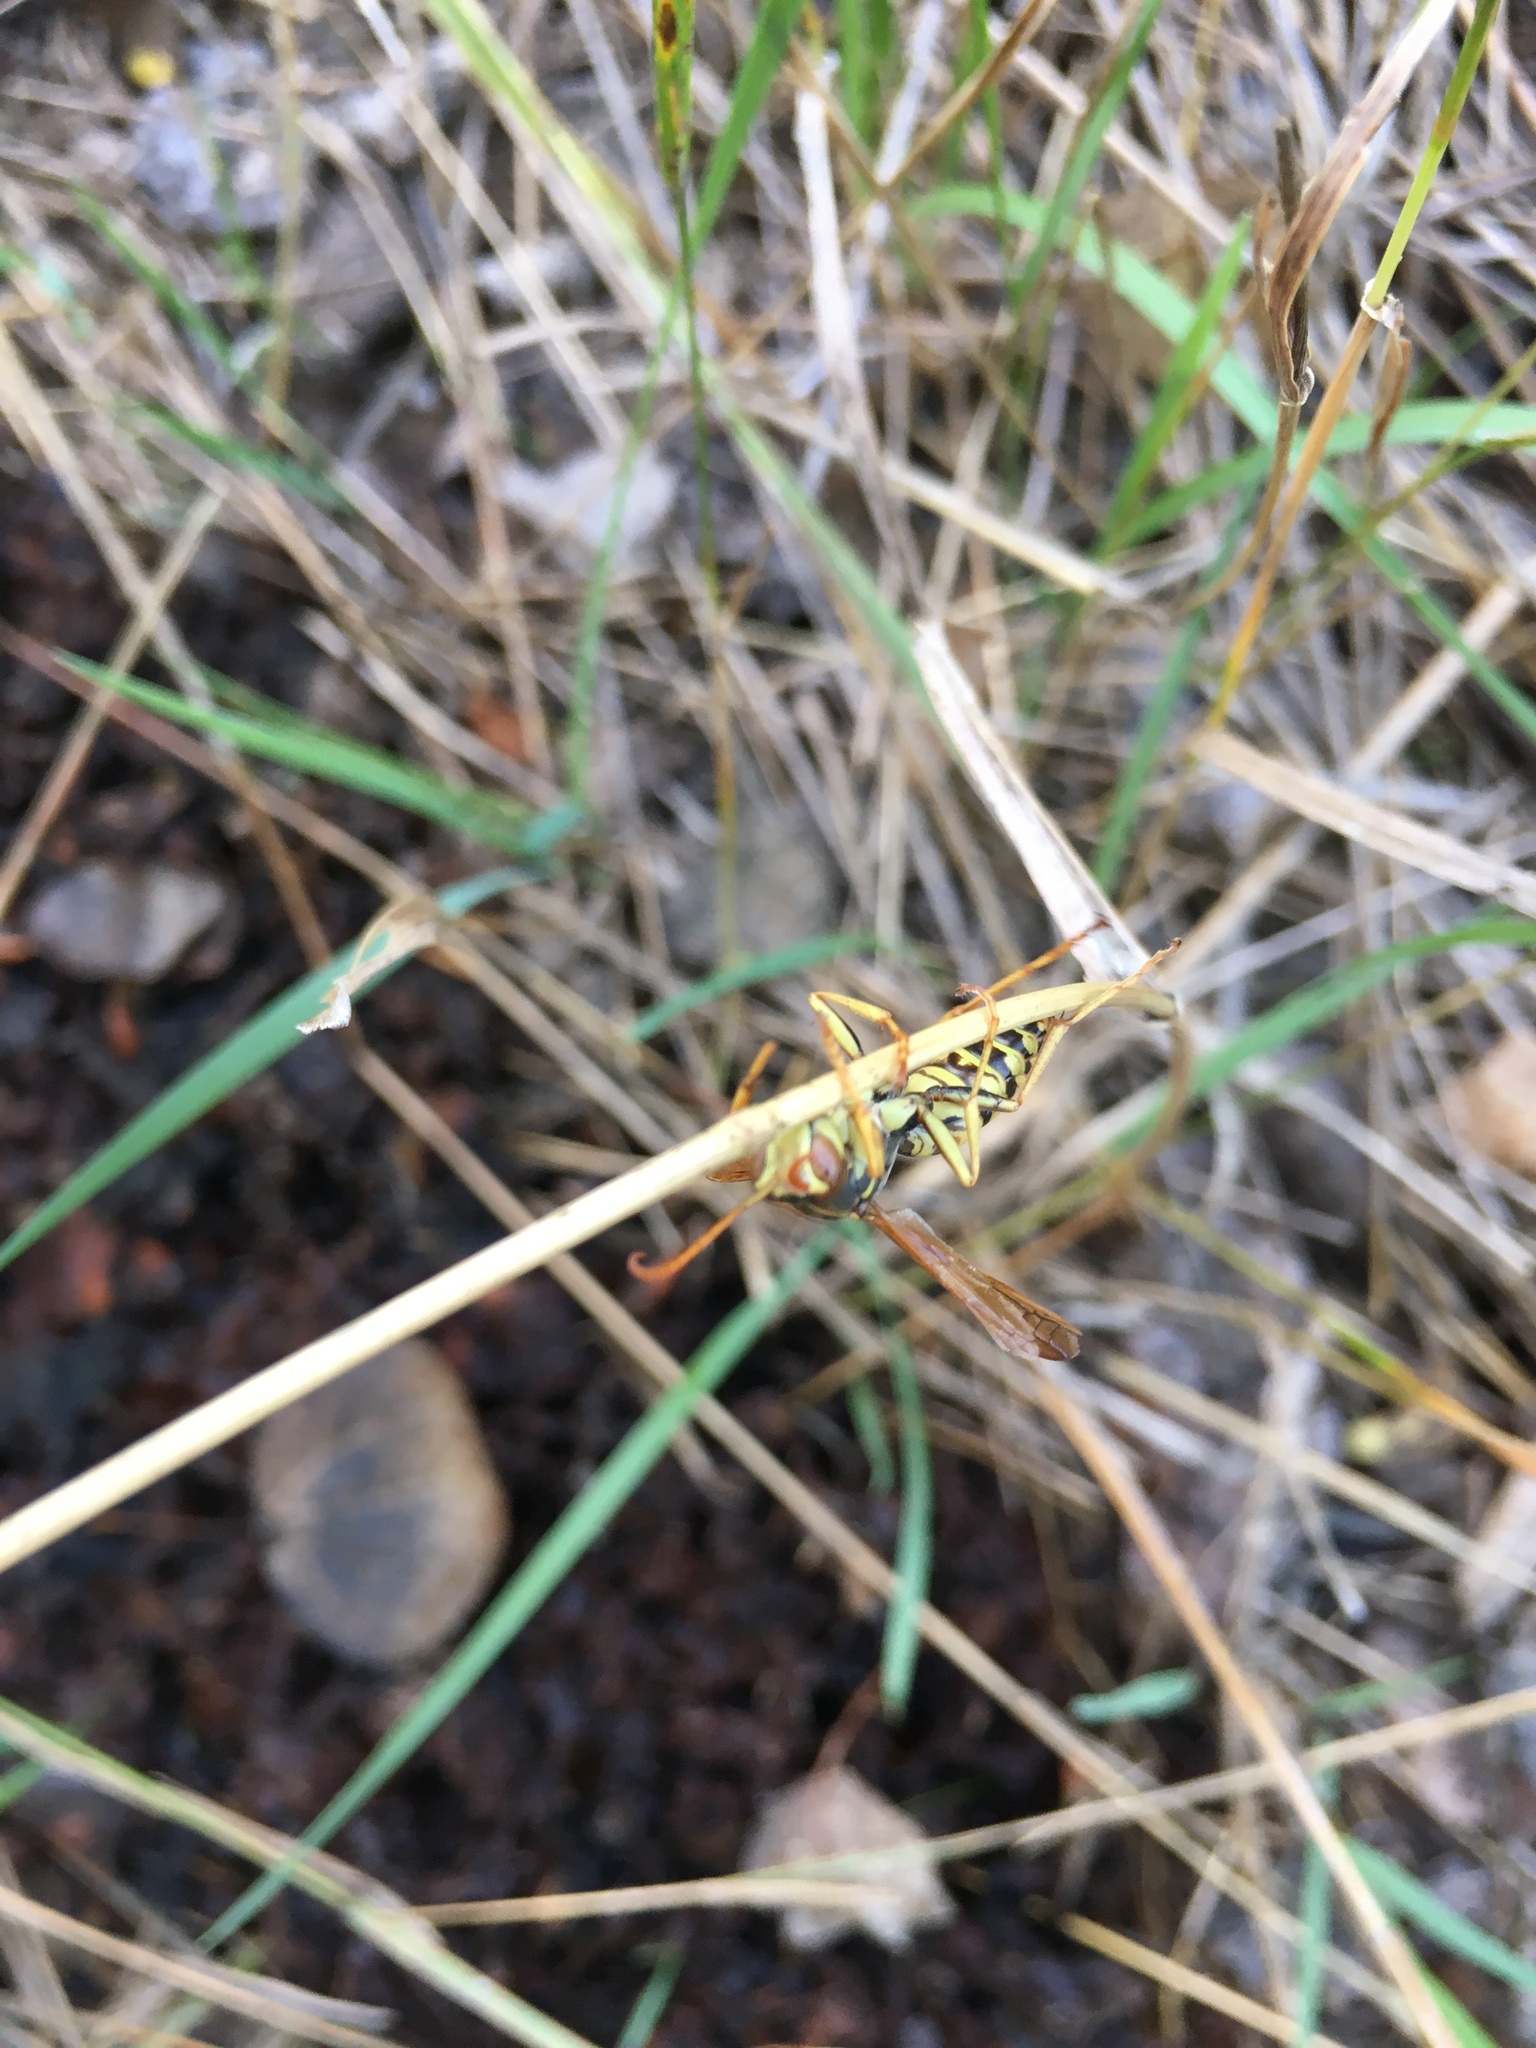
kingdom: Animalia
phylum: Arthropoda
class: Insecta
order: Hymenoptera
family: Eumenidae
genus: Polistes
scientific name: Polistes aurifer
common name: Paper wasp
